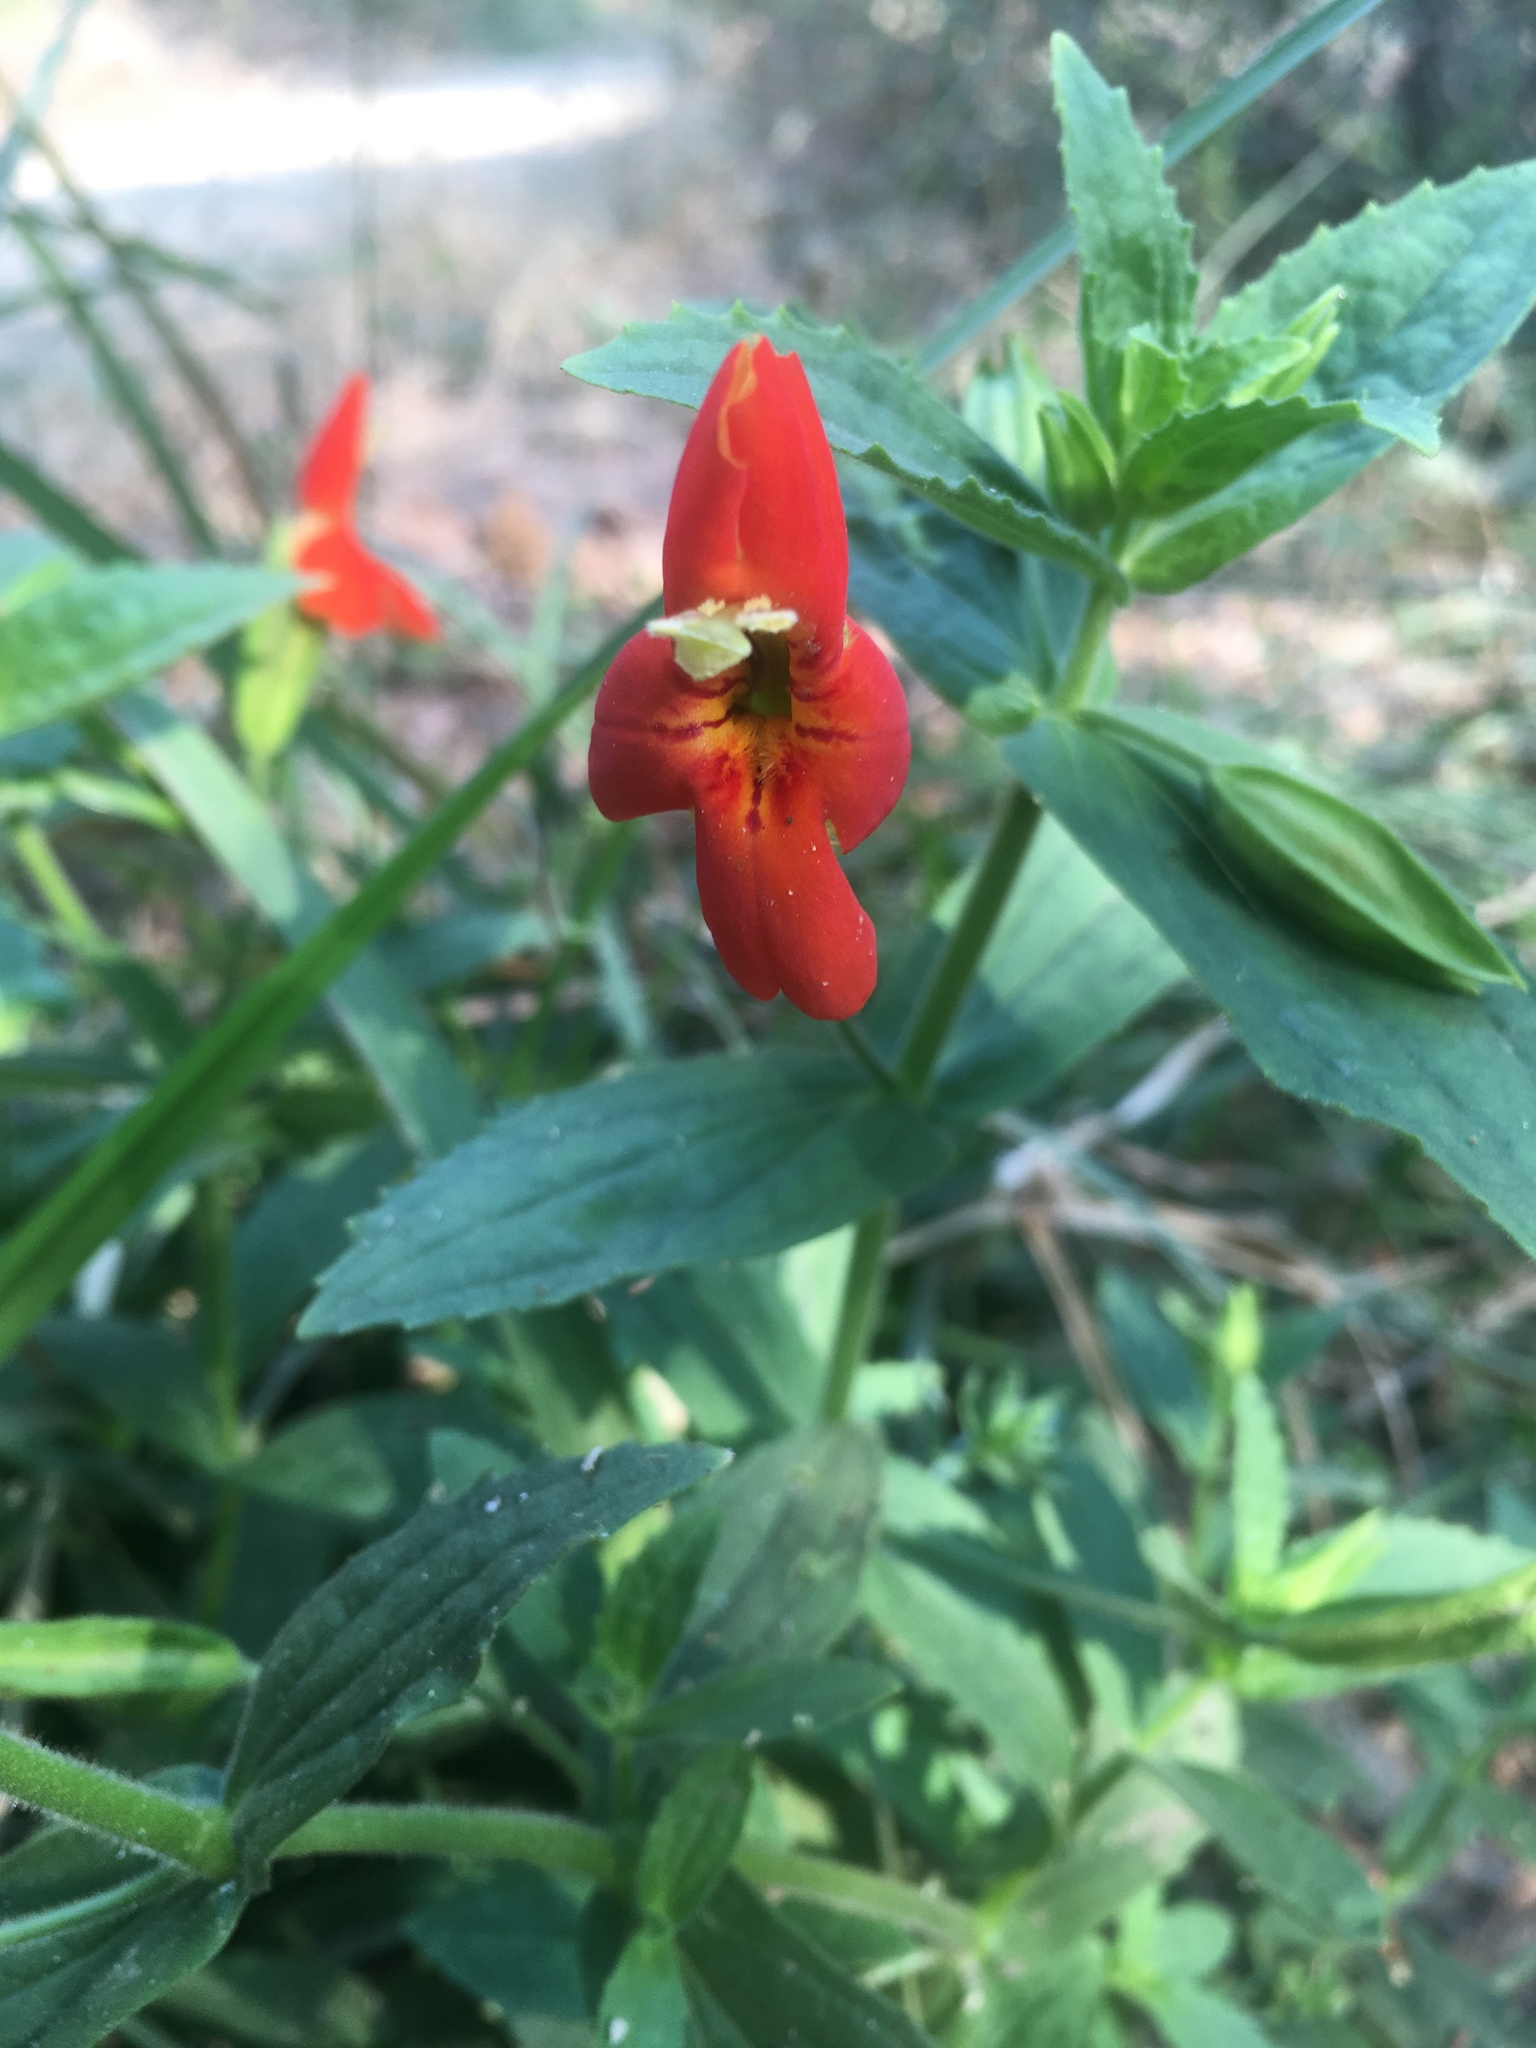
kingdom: Plantae
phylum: Tracheophyta
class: Magnoliopsida
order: Lamiales
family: Phrymaceae
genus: Erythranthe
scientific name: Erythranthe cardinalis
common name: Scarlet monkey-flower
